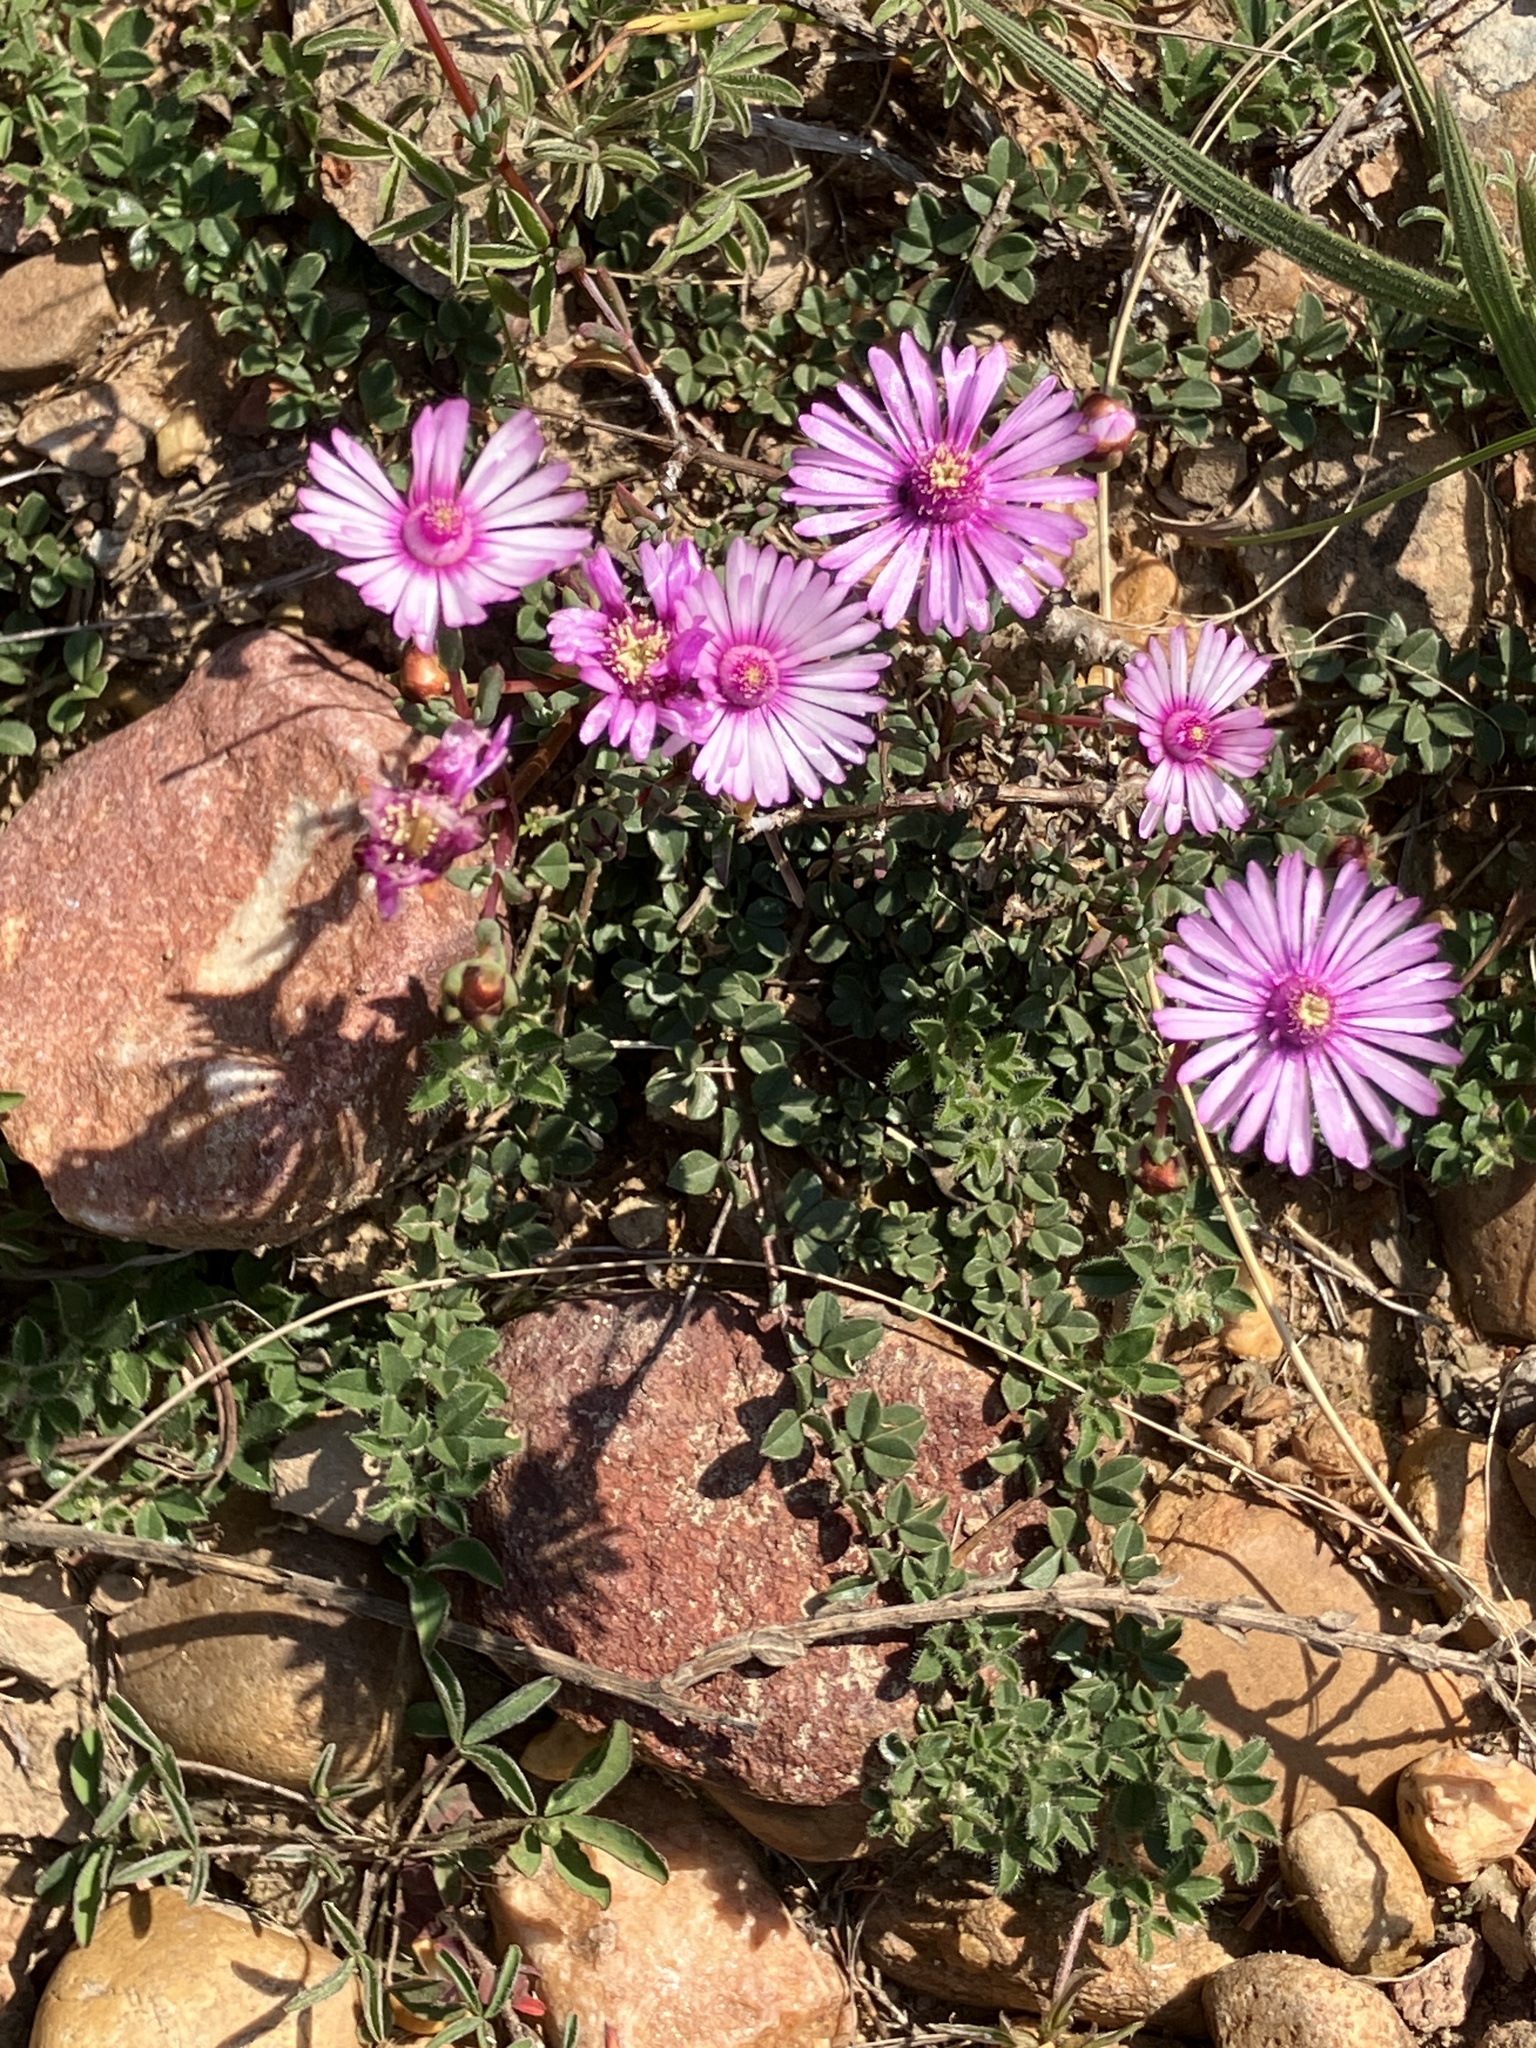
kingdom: Plantae
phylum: Tracheophyta
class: Magnoliopsida
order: Caryophyllales
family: Aizoaceae
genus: Lampranthus
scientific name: Lampranthus elegans
